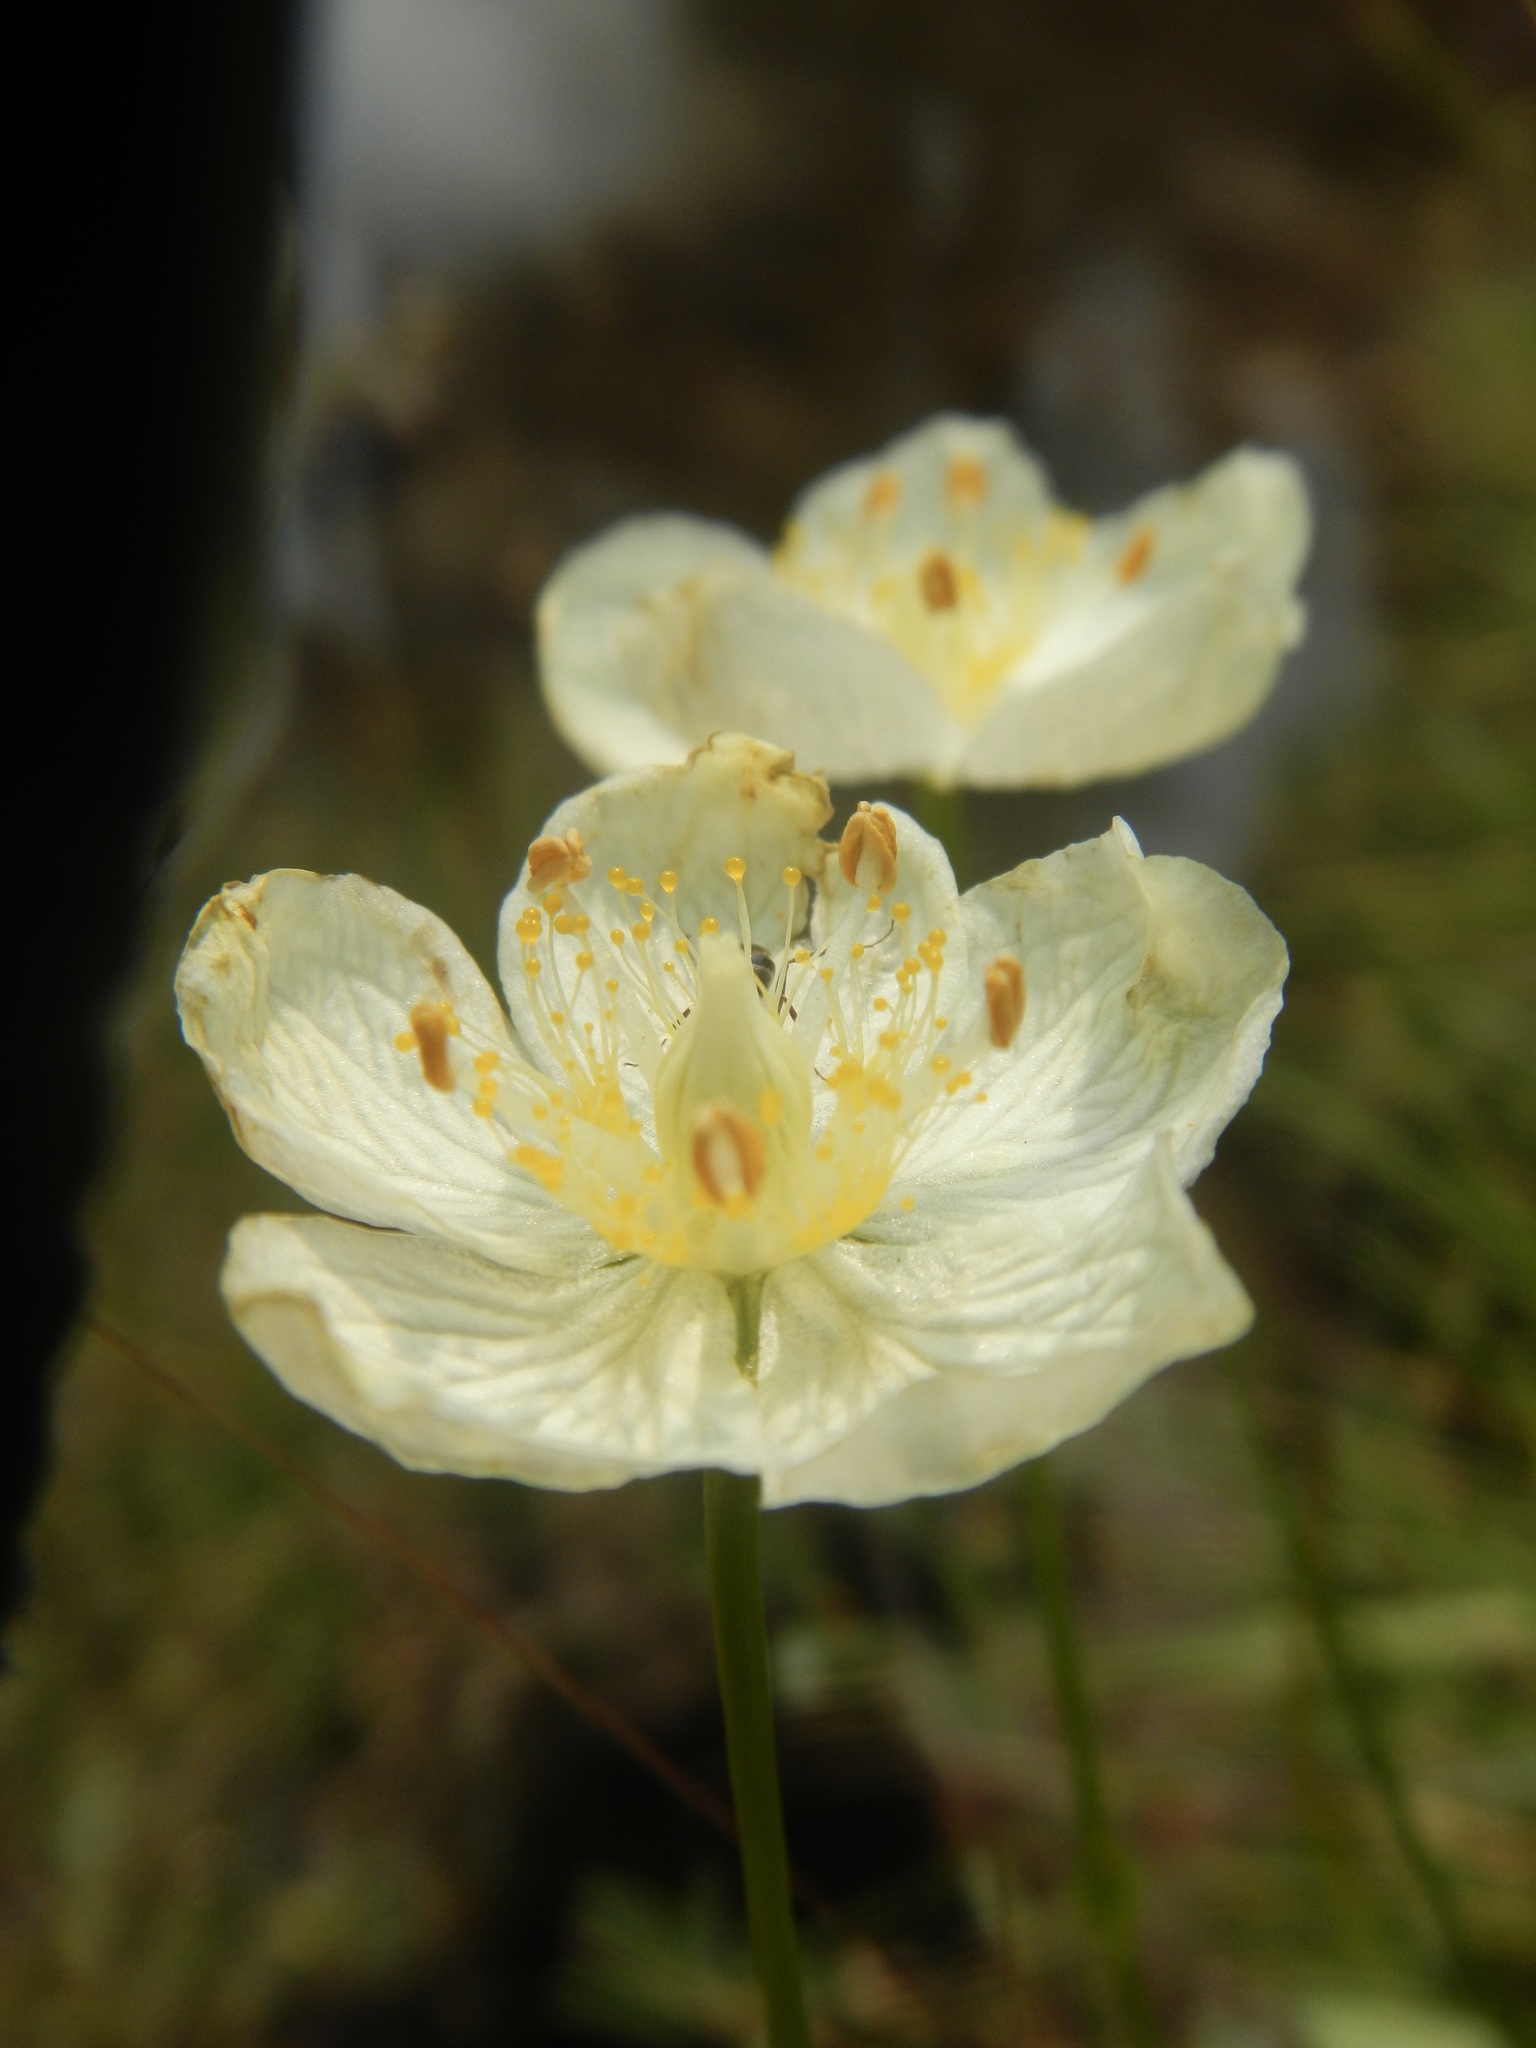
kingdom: Plantae
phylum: Tracheophyta
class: Magnoliopsida
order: Celastrales
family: Parnassiaceae
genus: Parnassia
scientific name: Parnassia palustris
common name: Grass-of-parnassus
